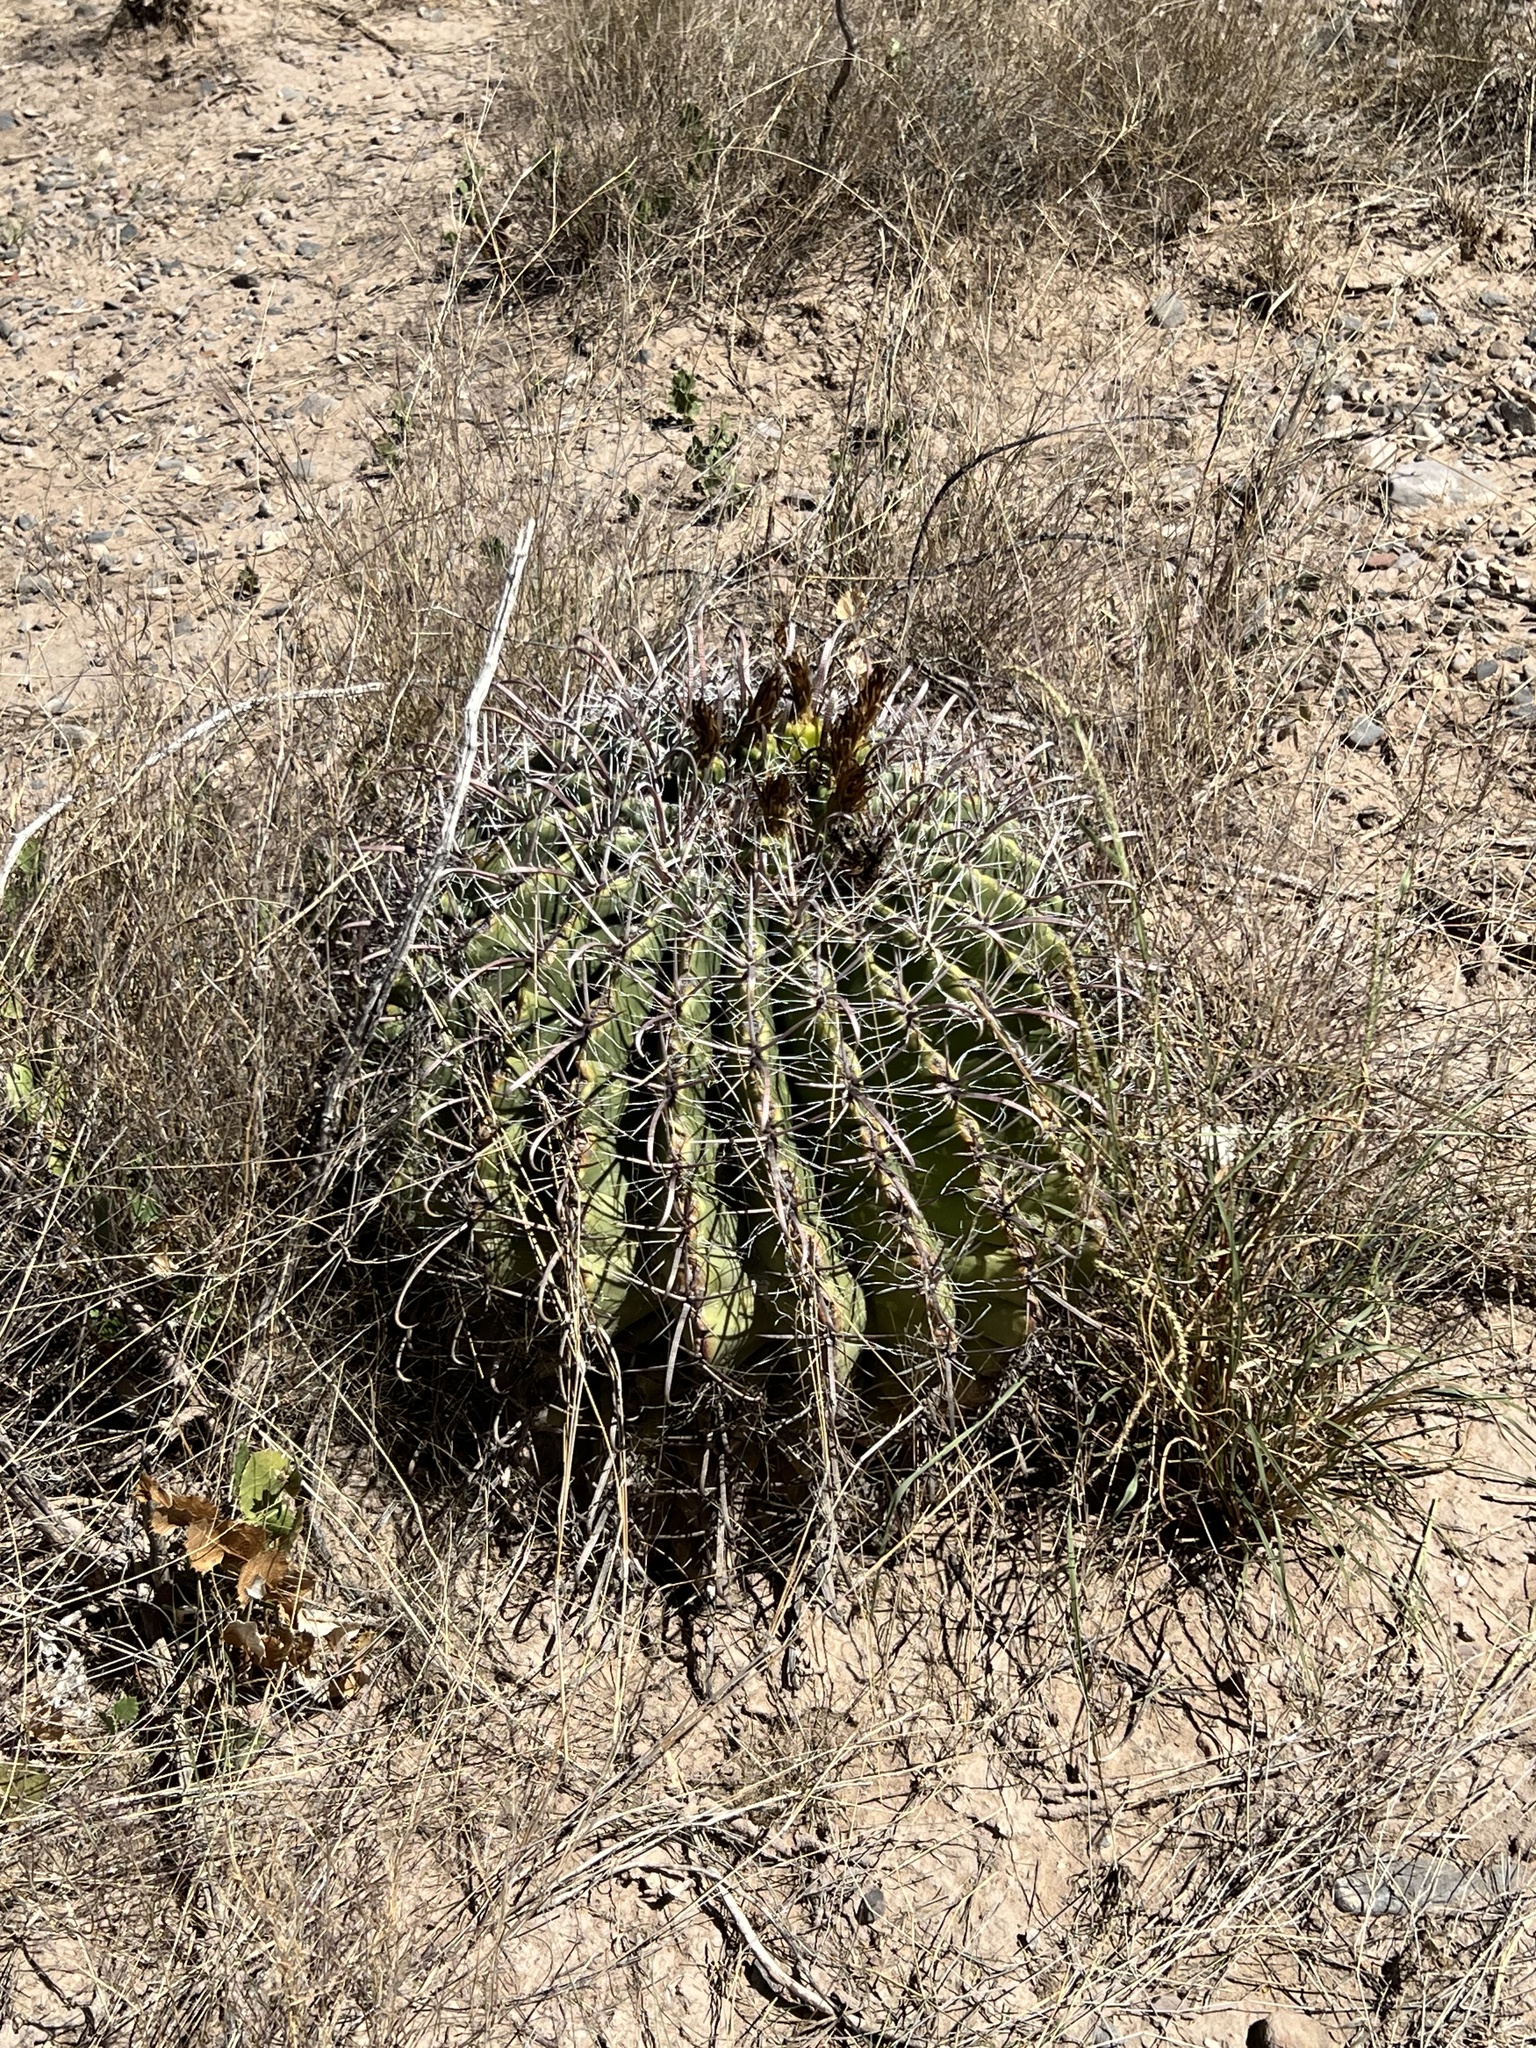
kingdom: Plantae
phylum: Tracheophyta
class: Magnoliopsida
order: Caryophyllales
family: Cactaceae
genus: Ferocactus
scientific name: Ferocactus wislizeni
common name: Candy barrel cactus
